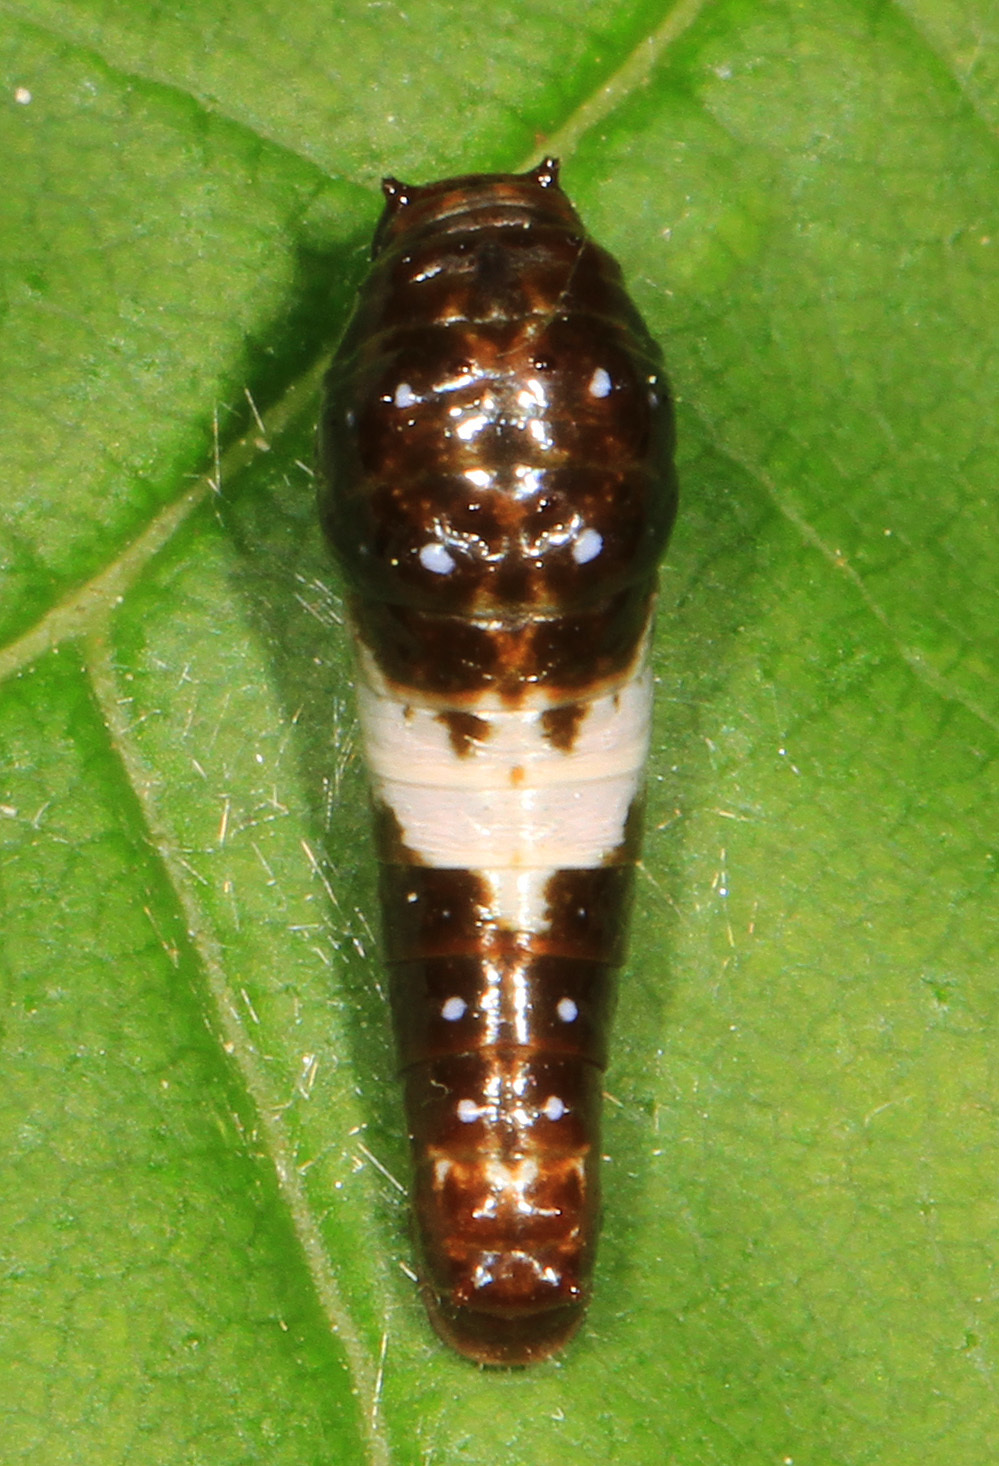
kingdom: Animalia
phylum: Arthropoda
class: Insecta
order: Lepidoptera
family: Papilionidae
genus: Papilio
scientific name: Papilio glaucus
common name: Tiger swallowtail
